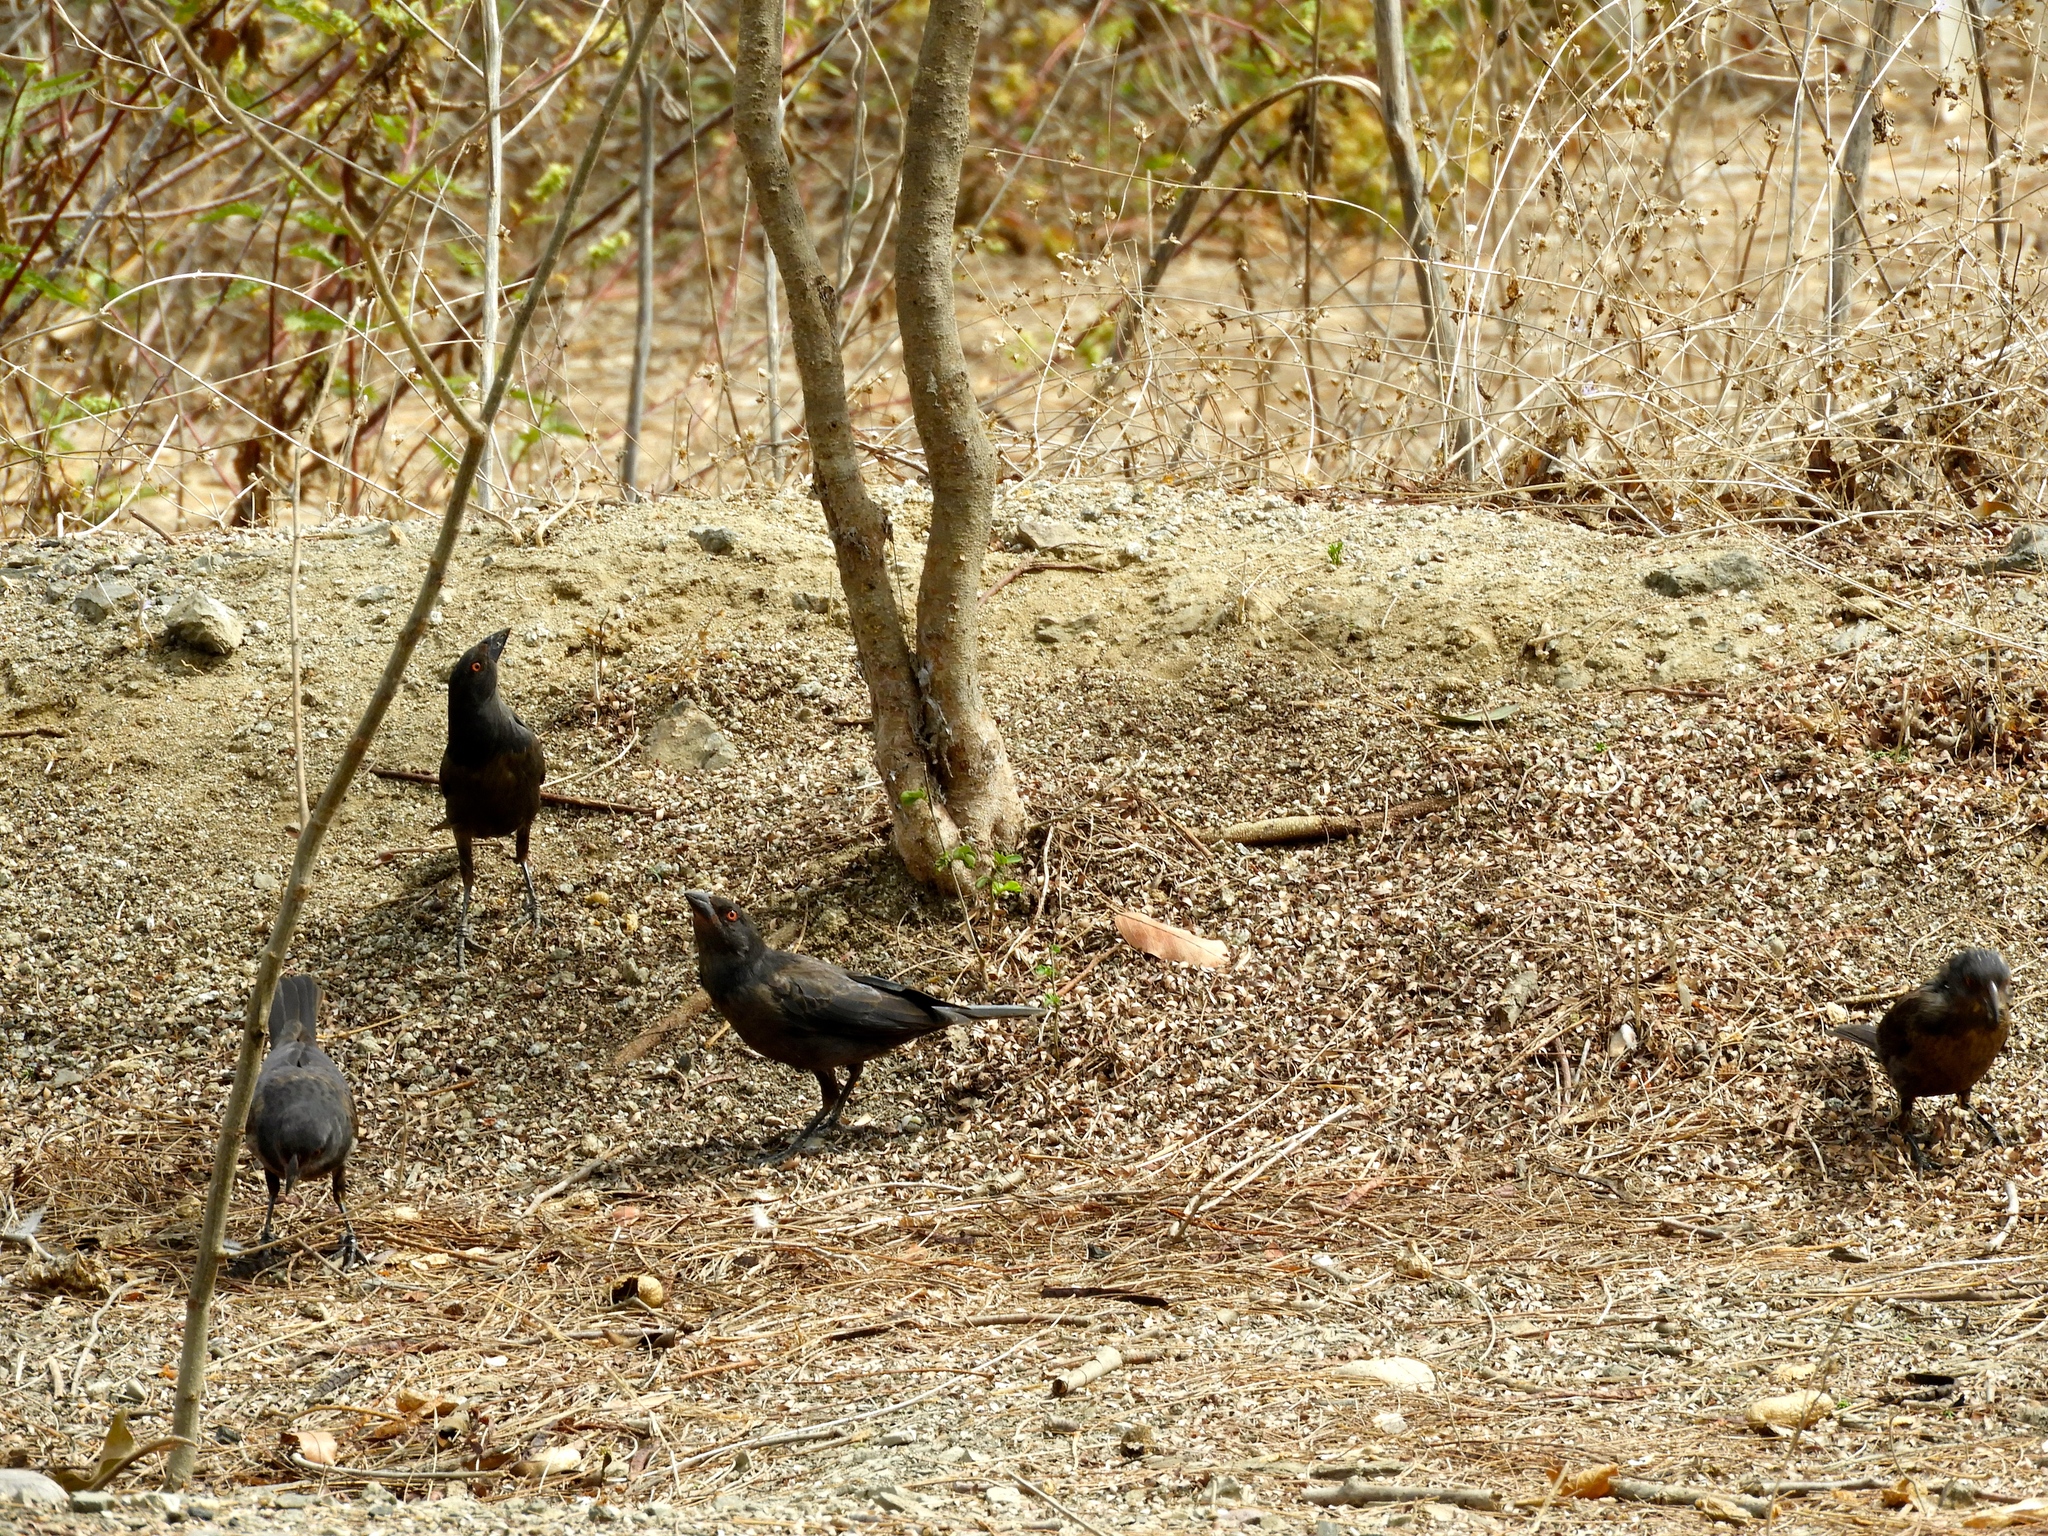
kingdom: Animalia
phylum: Chordata
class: Aves
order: Passeriformes
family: Icteridae
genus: Molothrus
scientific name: Molothrus aeneus
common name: Bronzed cowbird
